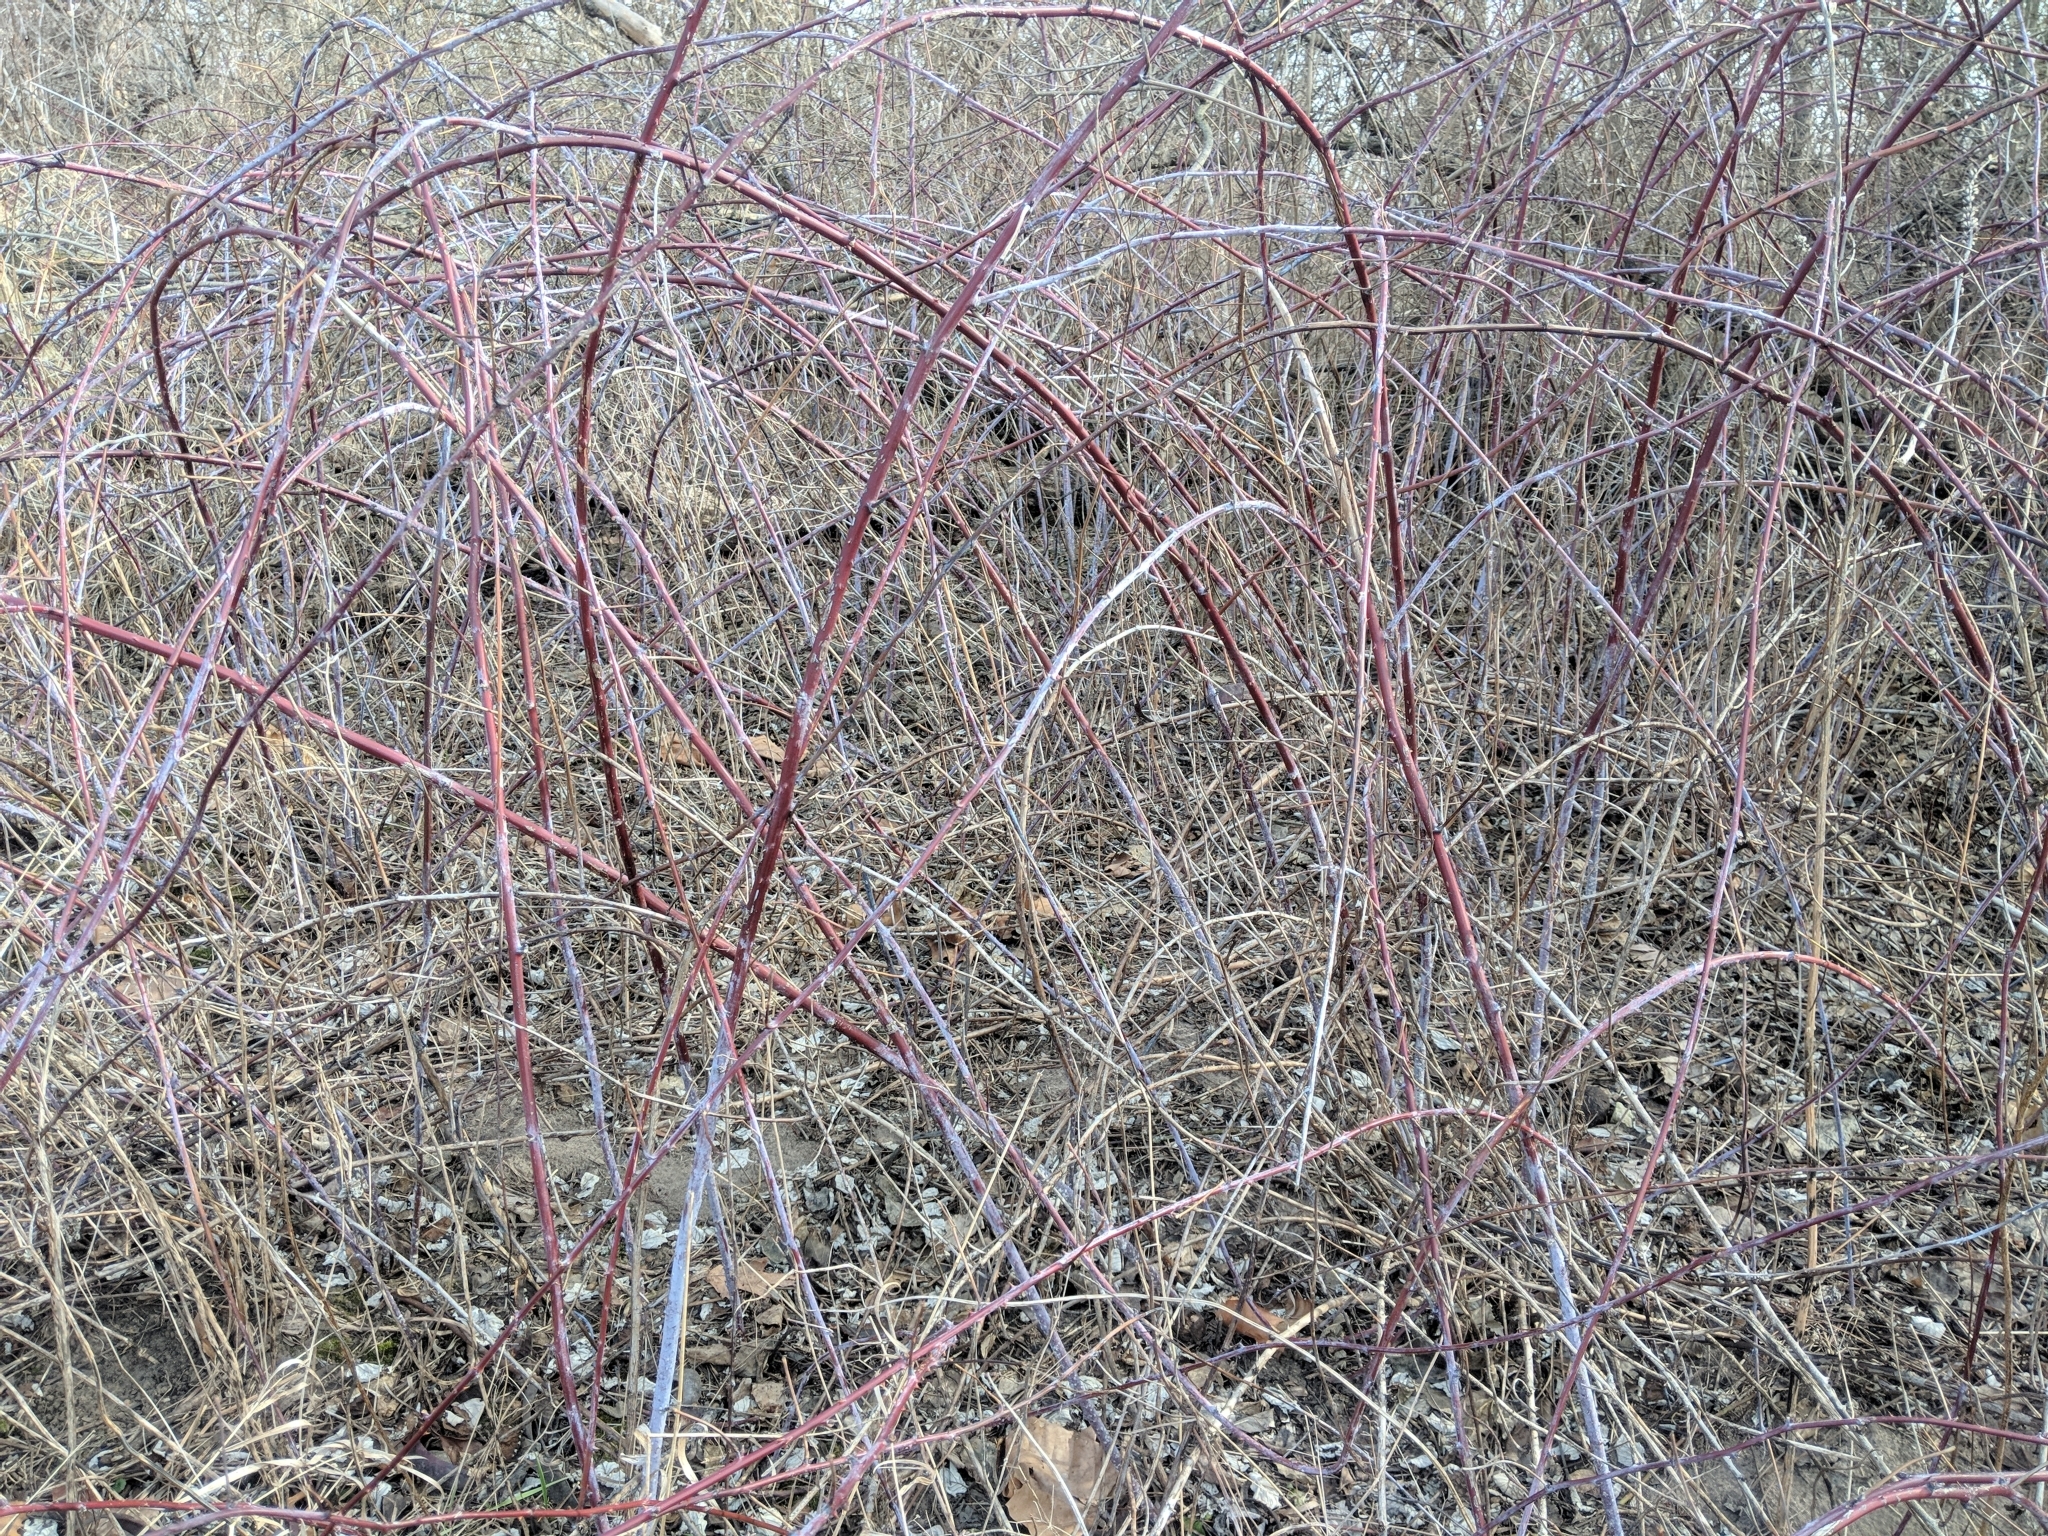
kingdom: Plantae
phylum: Tracheophyta
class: Magnoliopsida
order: Rosales
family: Rosaceae
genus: Rubus
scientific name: Rubus occidentalis
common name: Black raspberry
